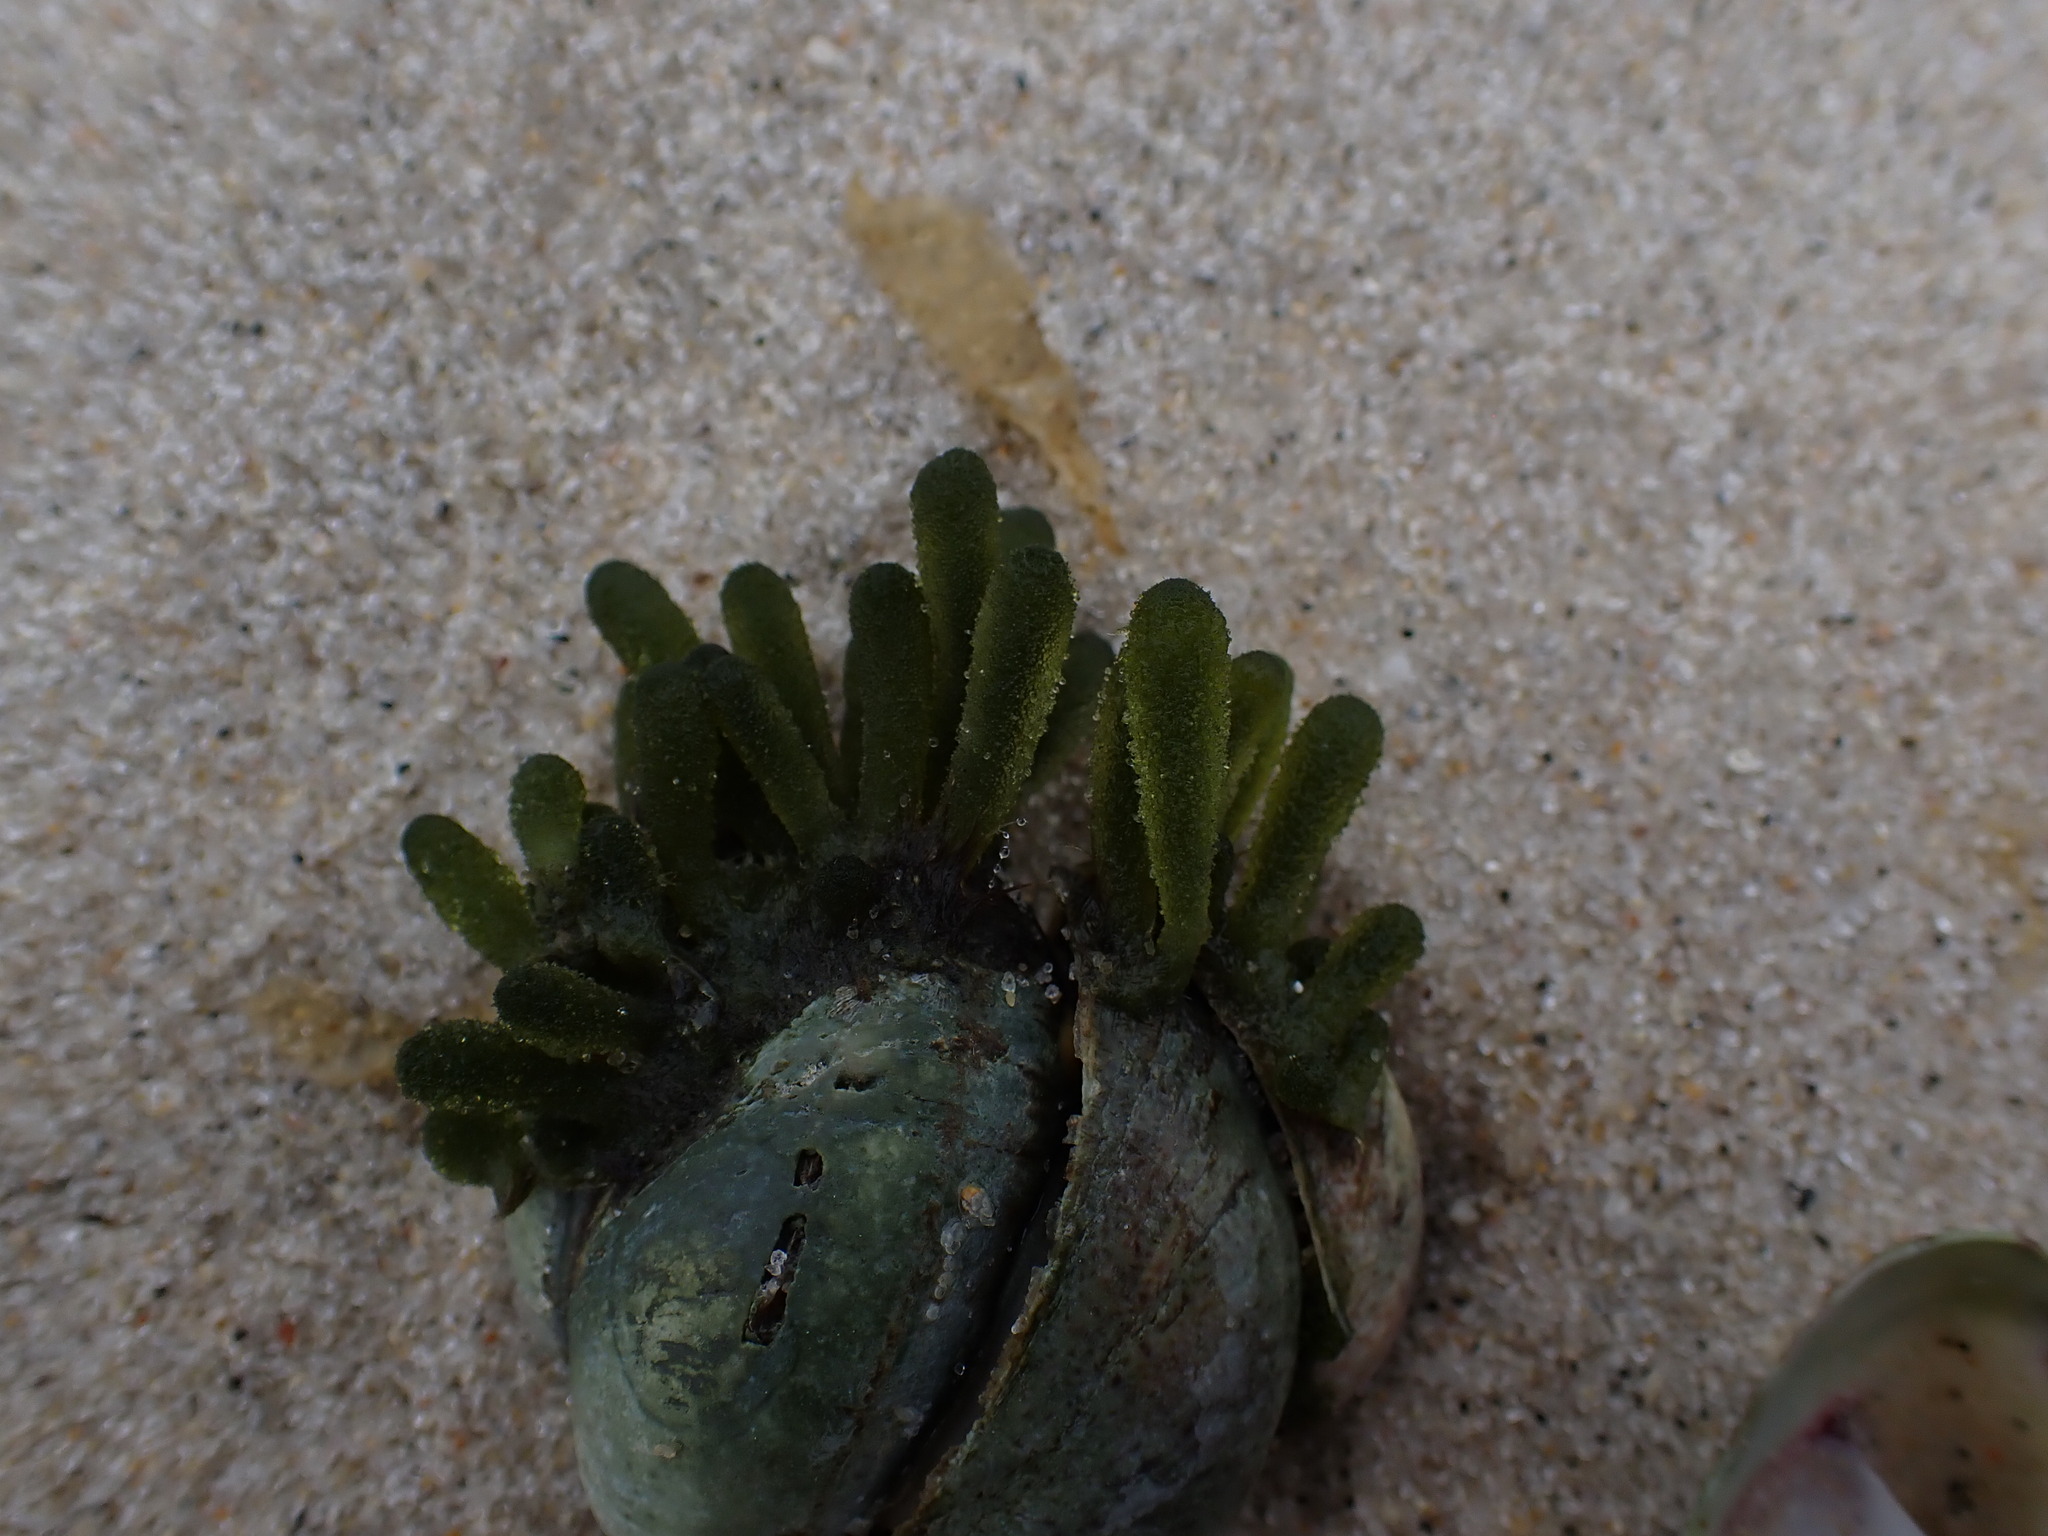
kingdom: Plantae
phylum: Chlorophyta
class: Ulvophyceae
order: Bryopsidales
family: Codiaceae
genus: Codium
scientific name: Codium fragile
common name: Dead man's fingers
